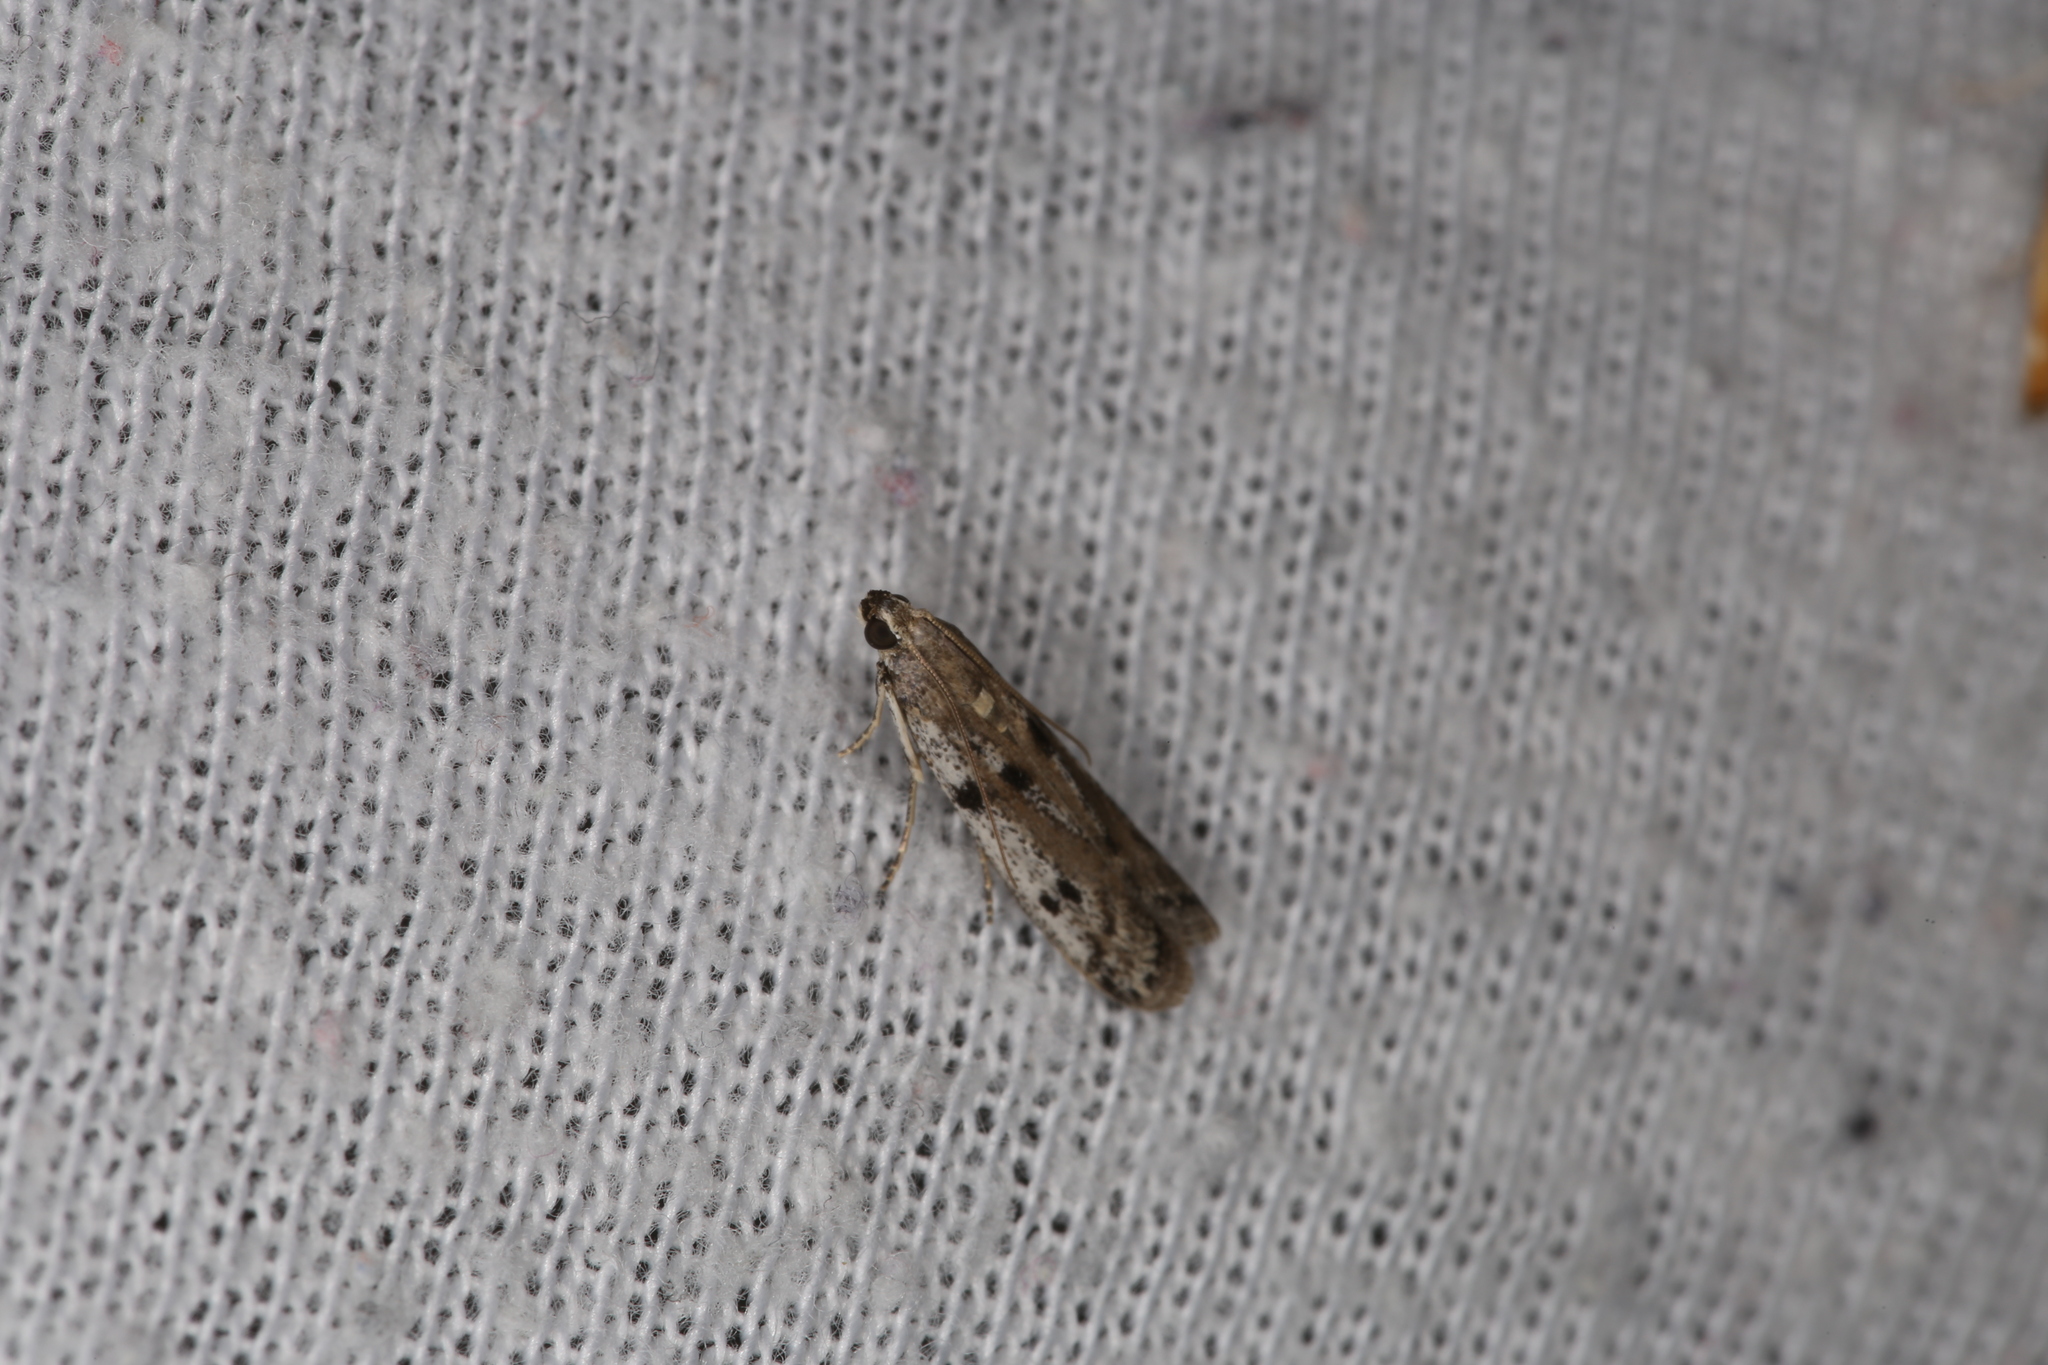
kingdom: Animalia
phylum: Arthropoda
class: Insecta
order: Lepidoptera
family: Pyralidae
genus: Phycitodes
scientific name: Phycitodes binaevella
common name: Ermine knot-horn
